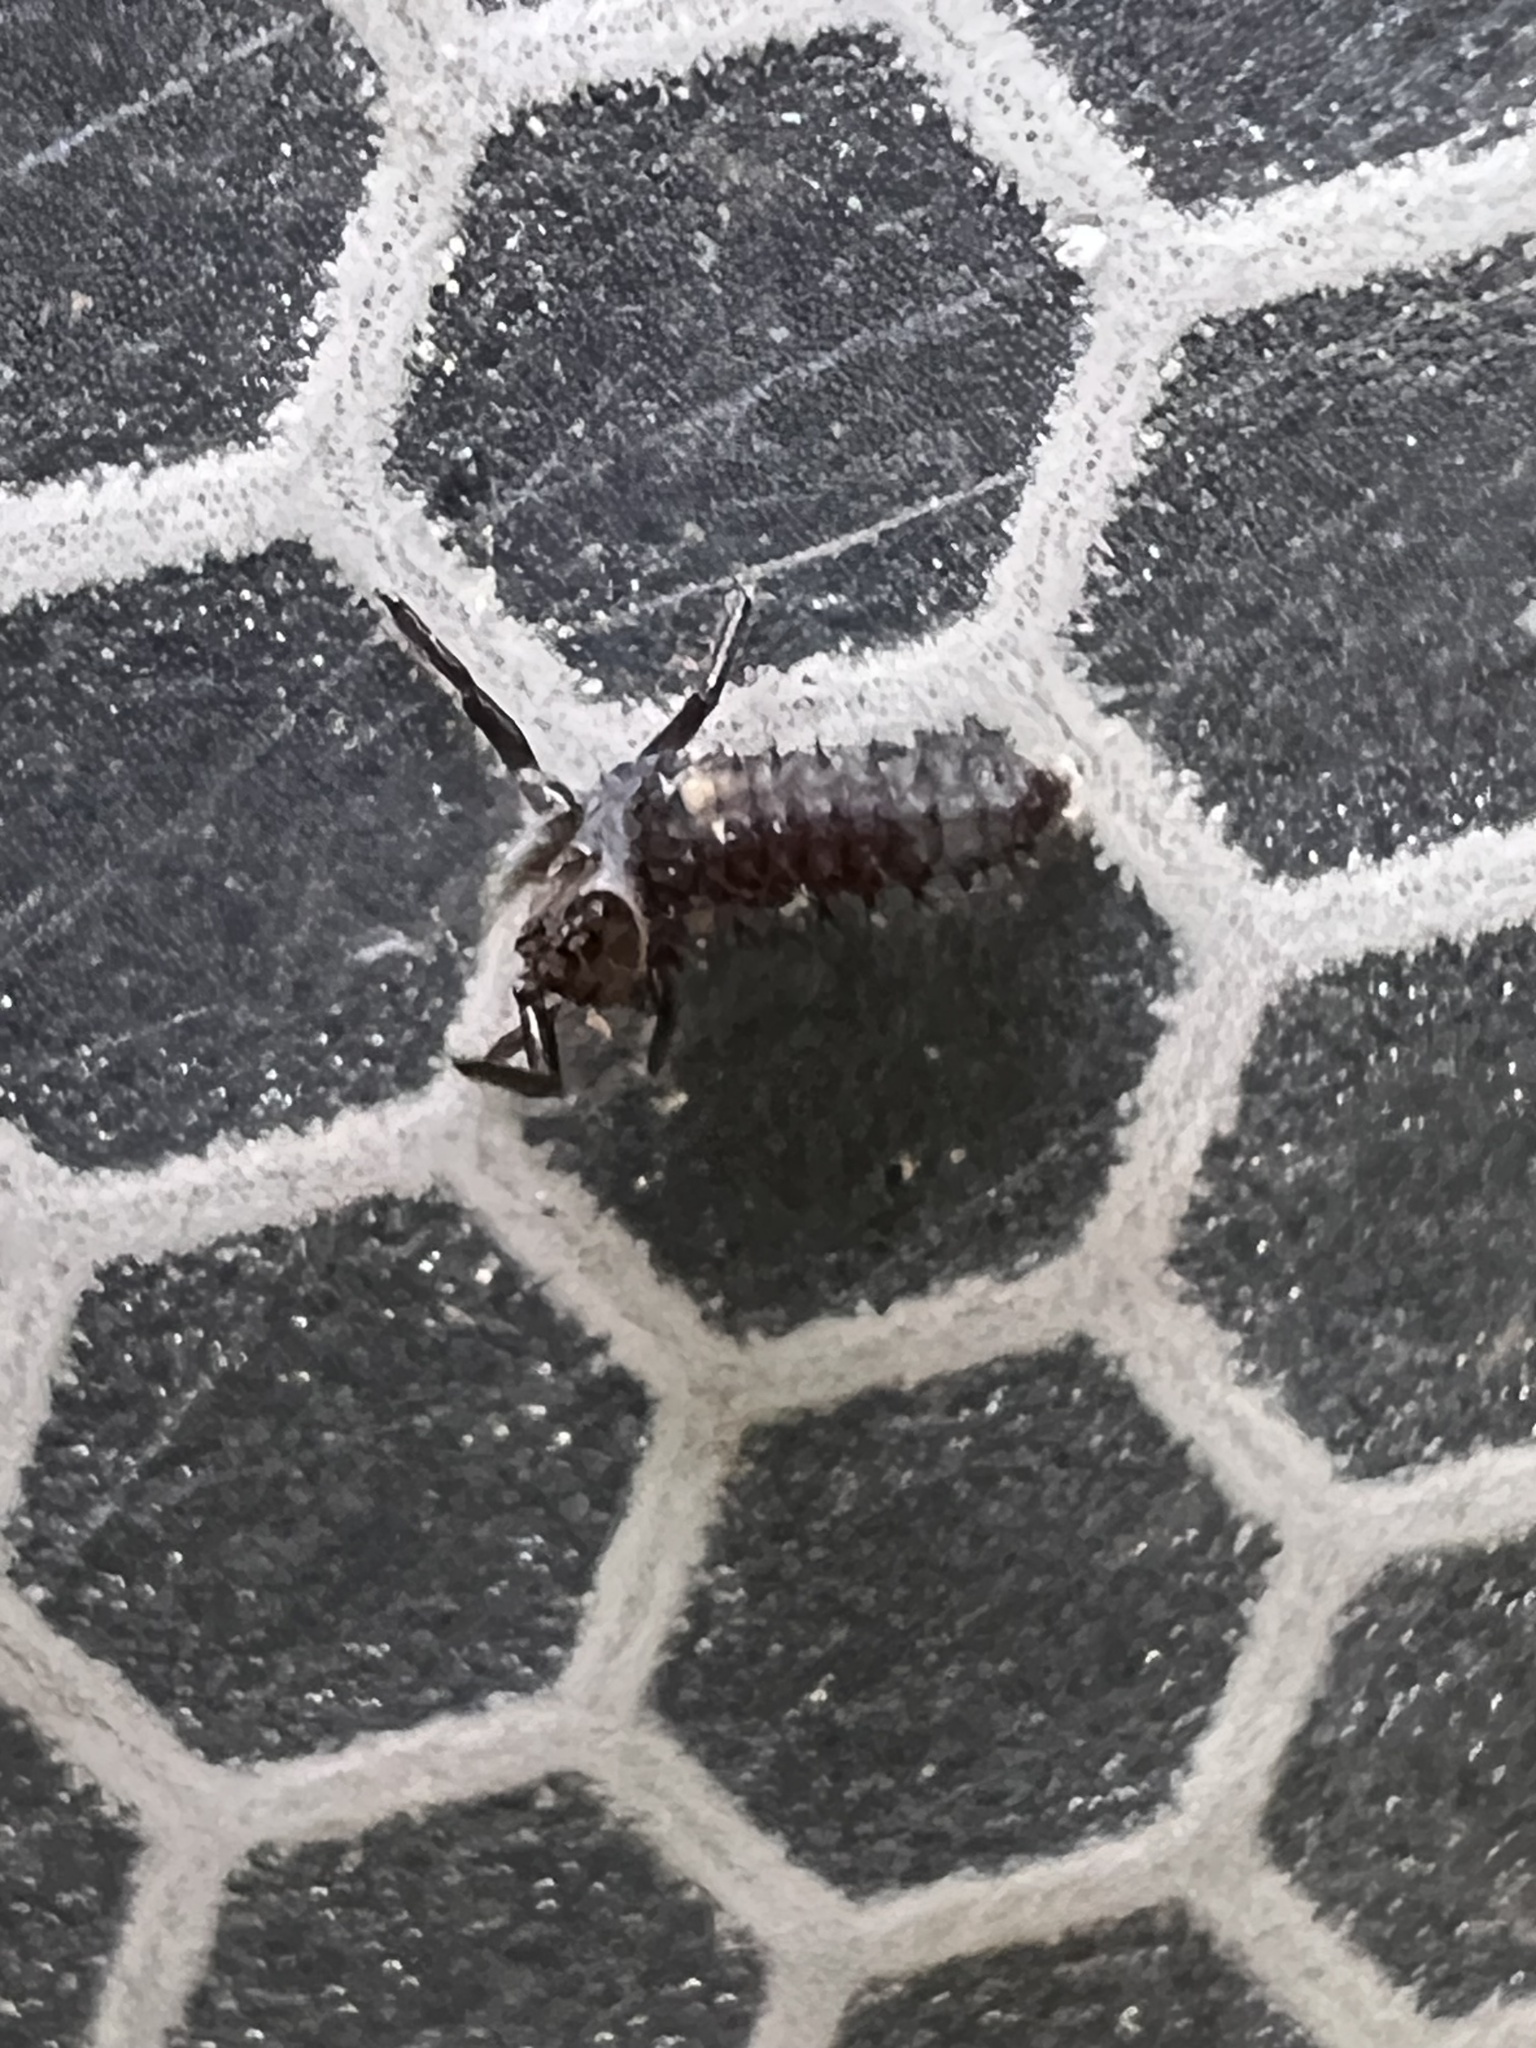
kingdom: Animalia
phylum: Arthropoda
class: Insecta
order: Coleoptera
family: Coccinellidae
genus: Harmonia
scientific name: Harmonia axyridis
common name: Harlequin ladybird
